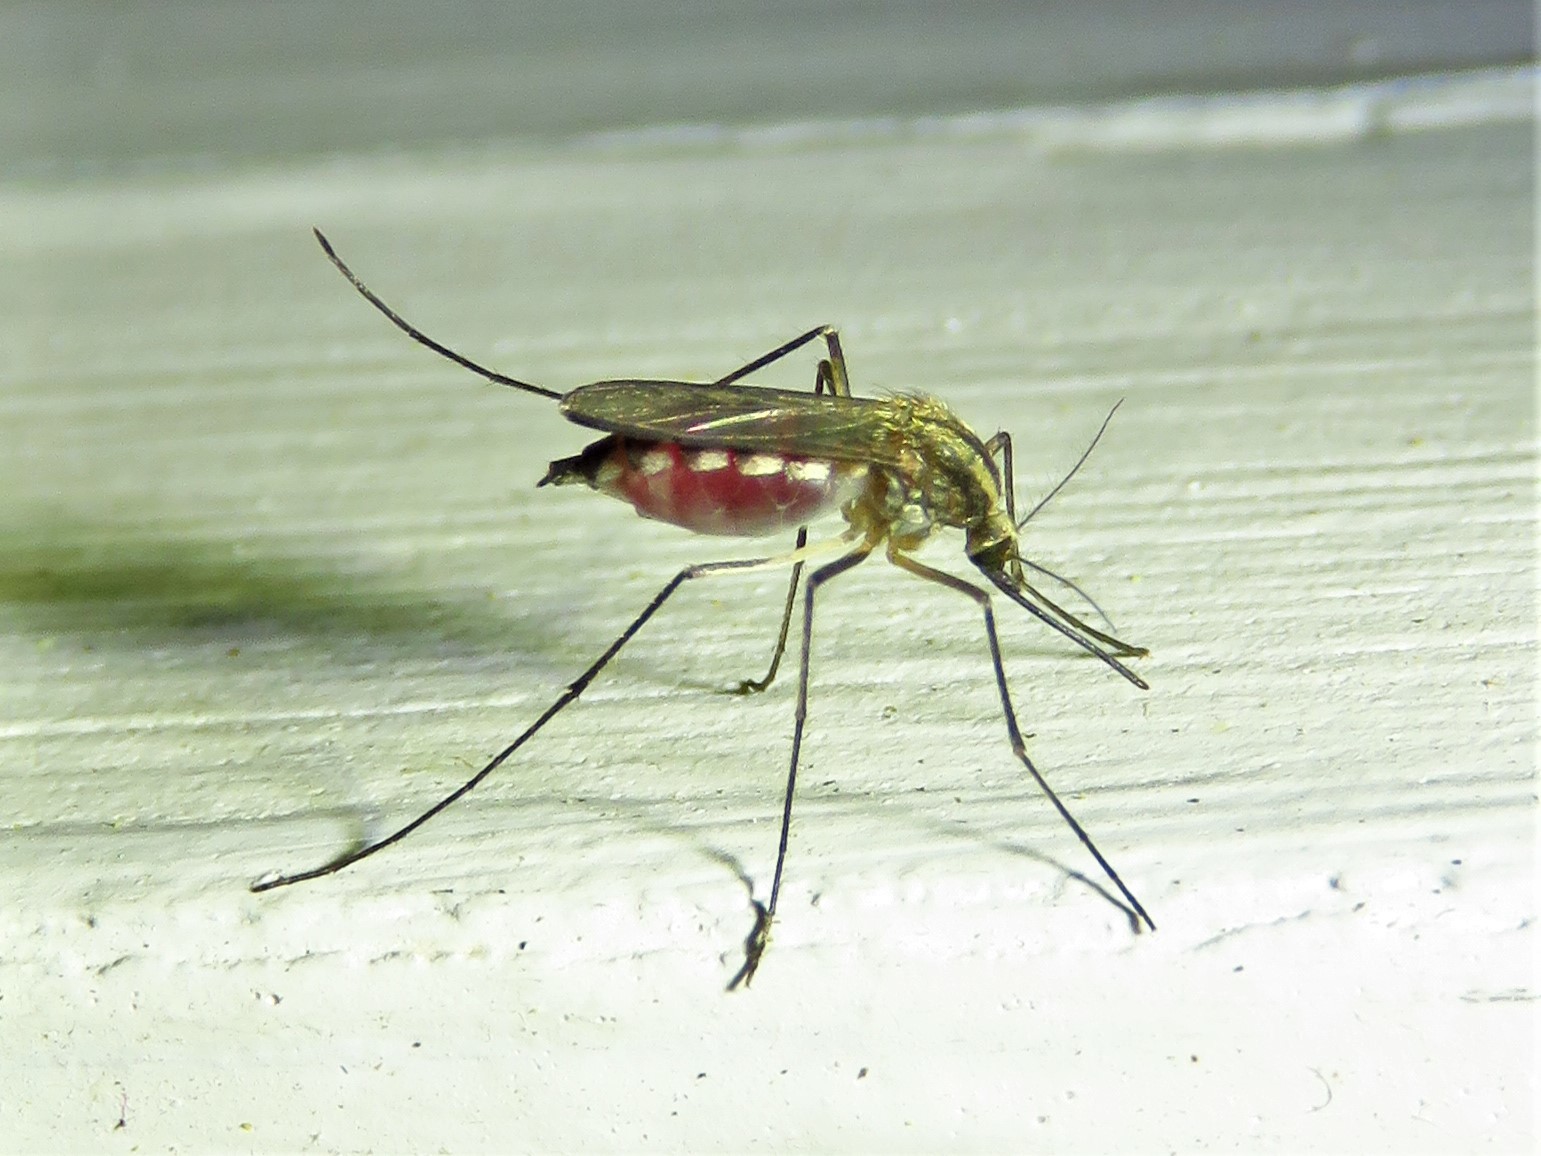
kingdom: Animalia
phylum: Arthropoda
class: Insecta
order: Diptera
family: Culicidae
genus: Aedes
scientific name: Aedes trivittatus
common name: Plains floodwater mosquito
